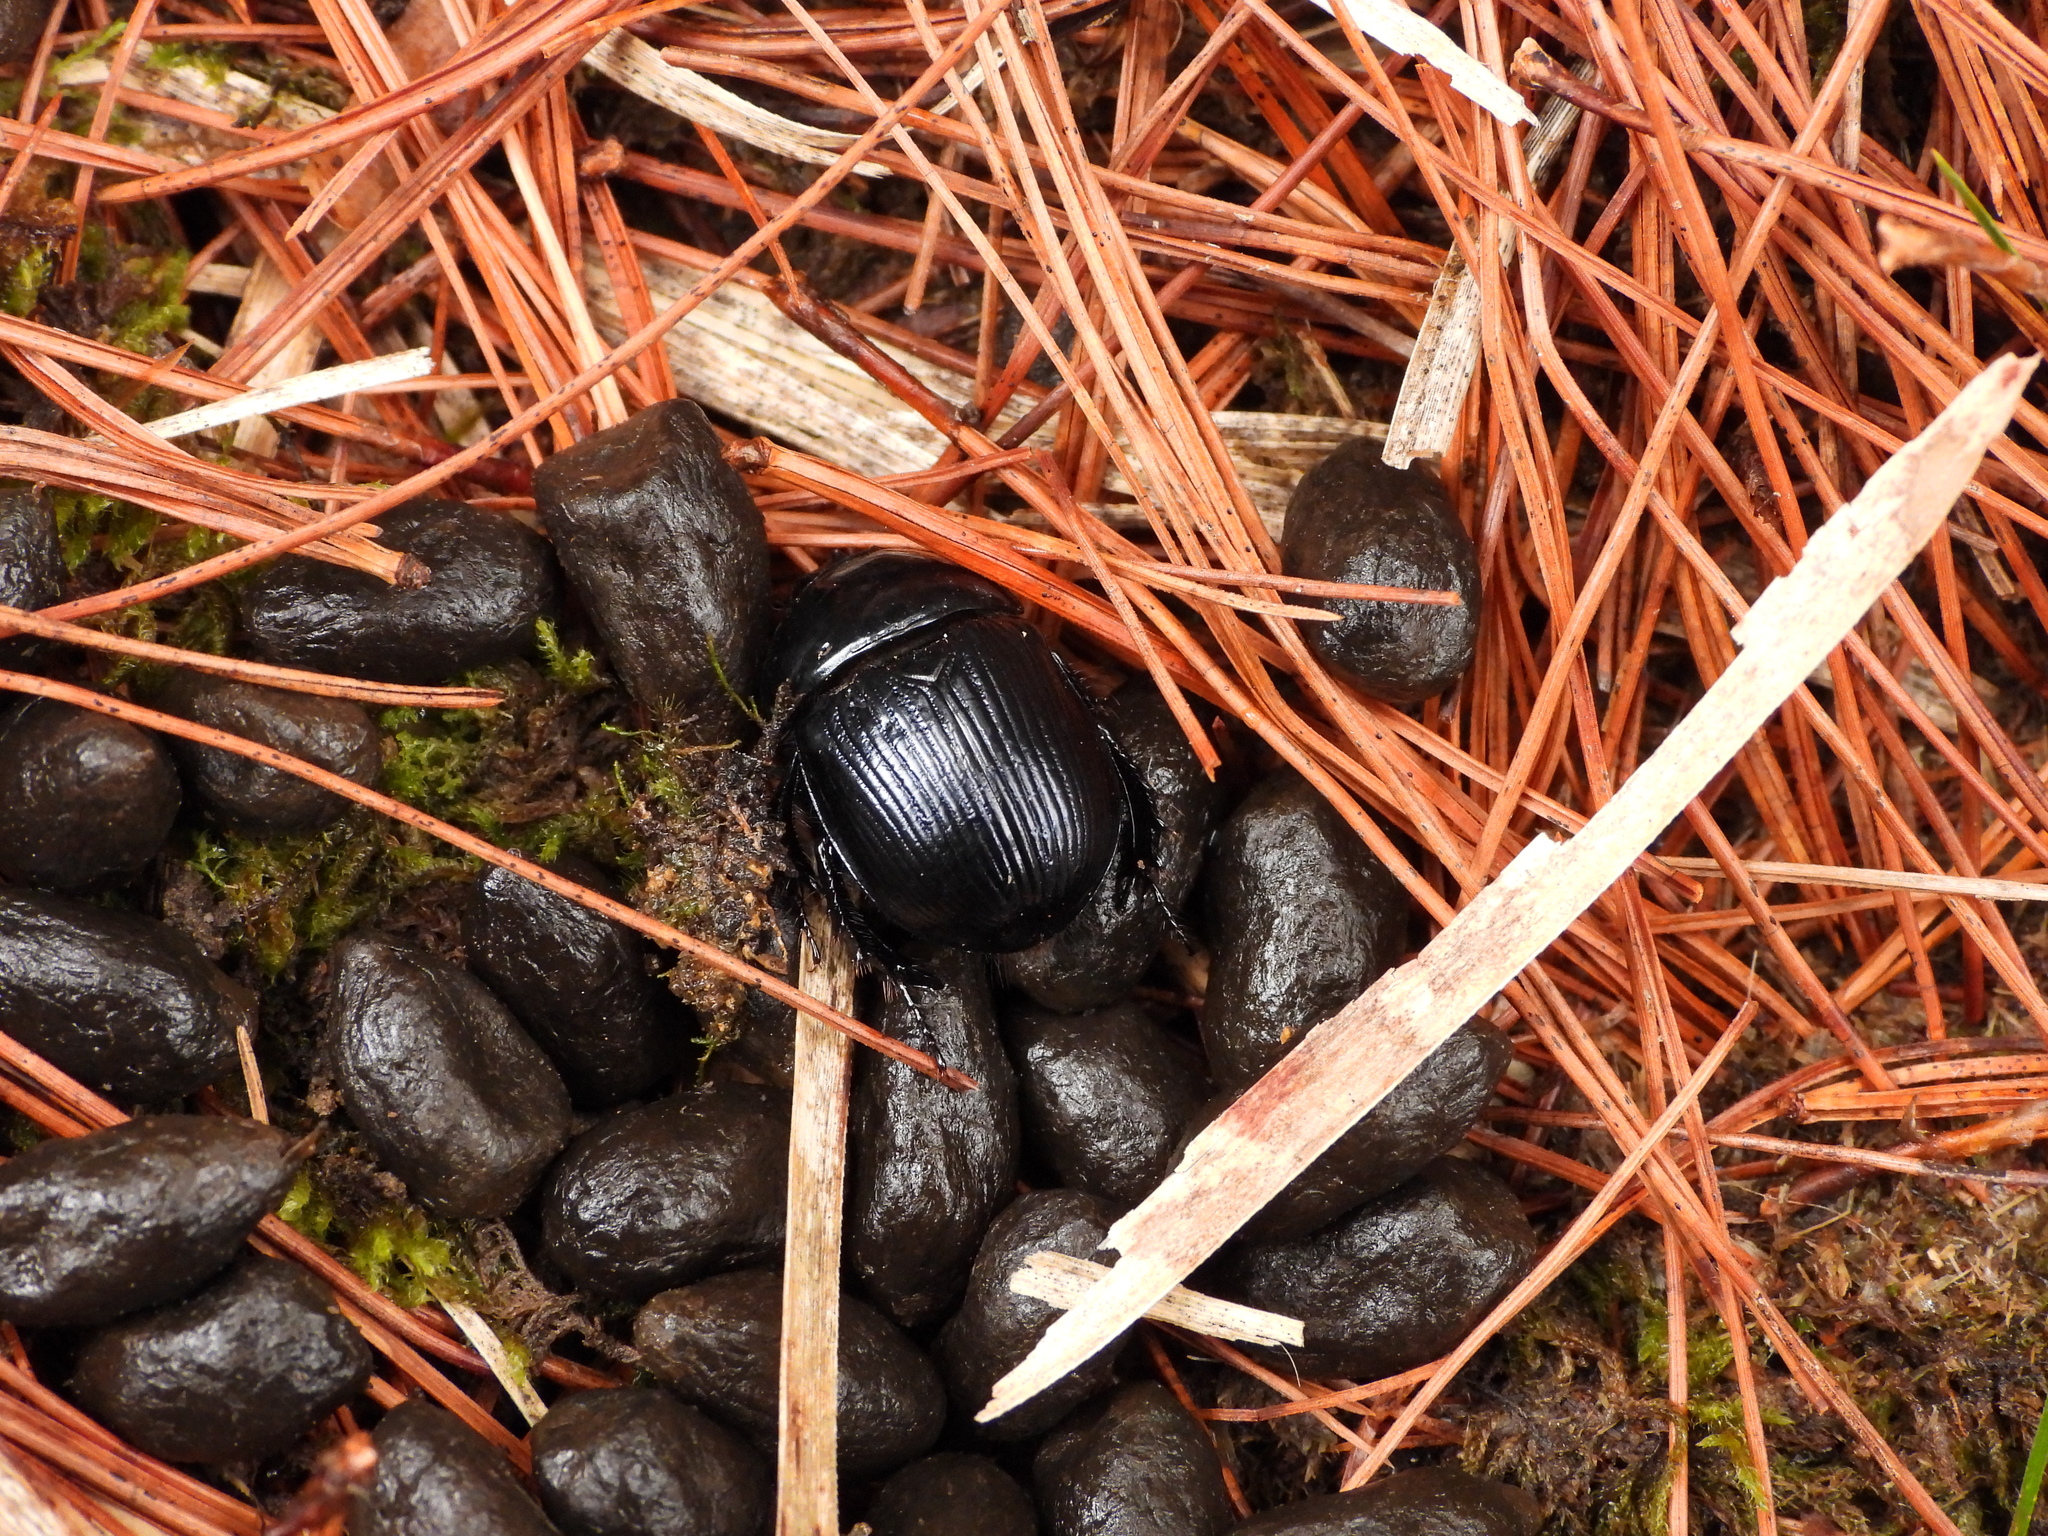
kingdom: Animalia
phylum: Arthropoda
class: Insecta
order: Coleoptera
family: Geotrupidae
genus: Phelotrupes
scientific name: Phelotrupes formosanus
